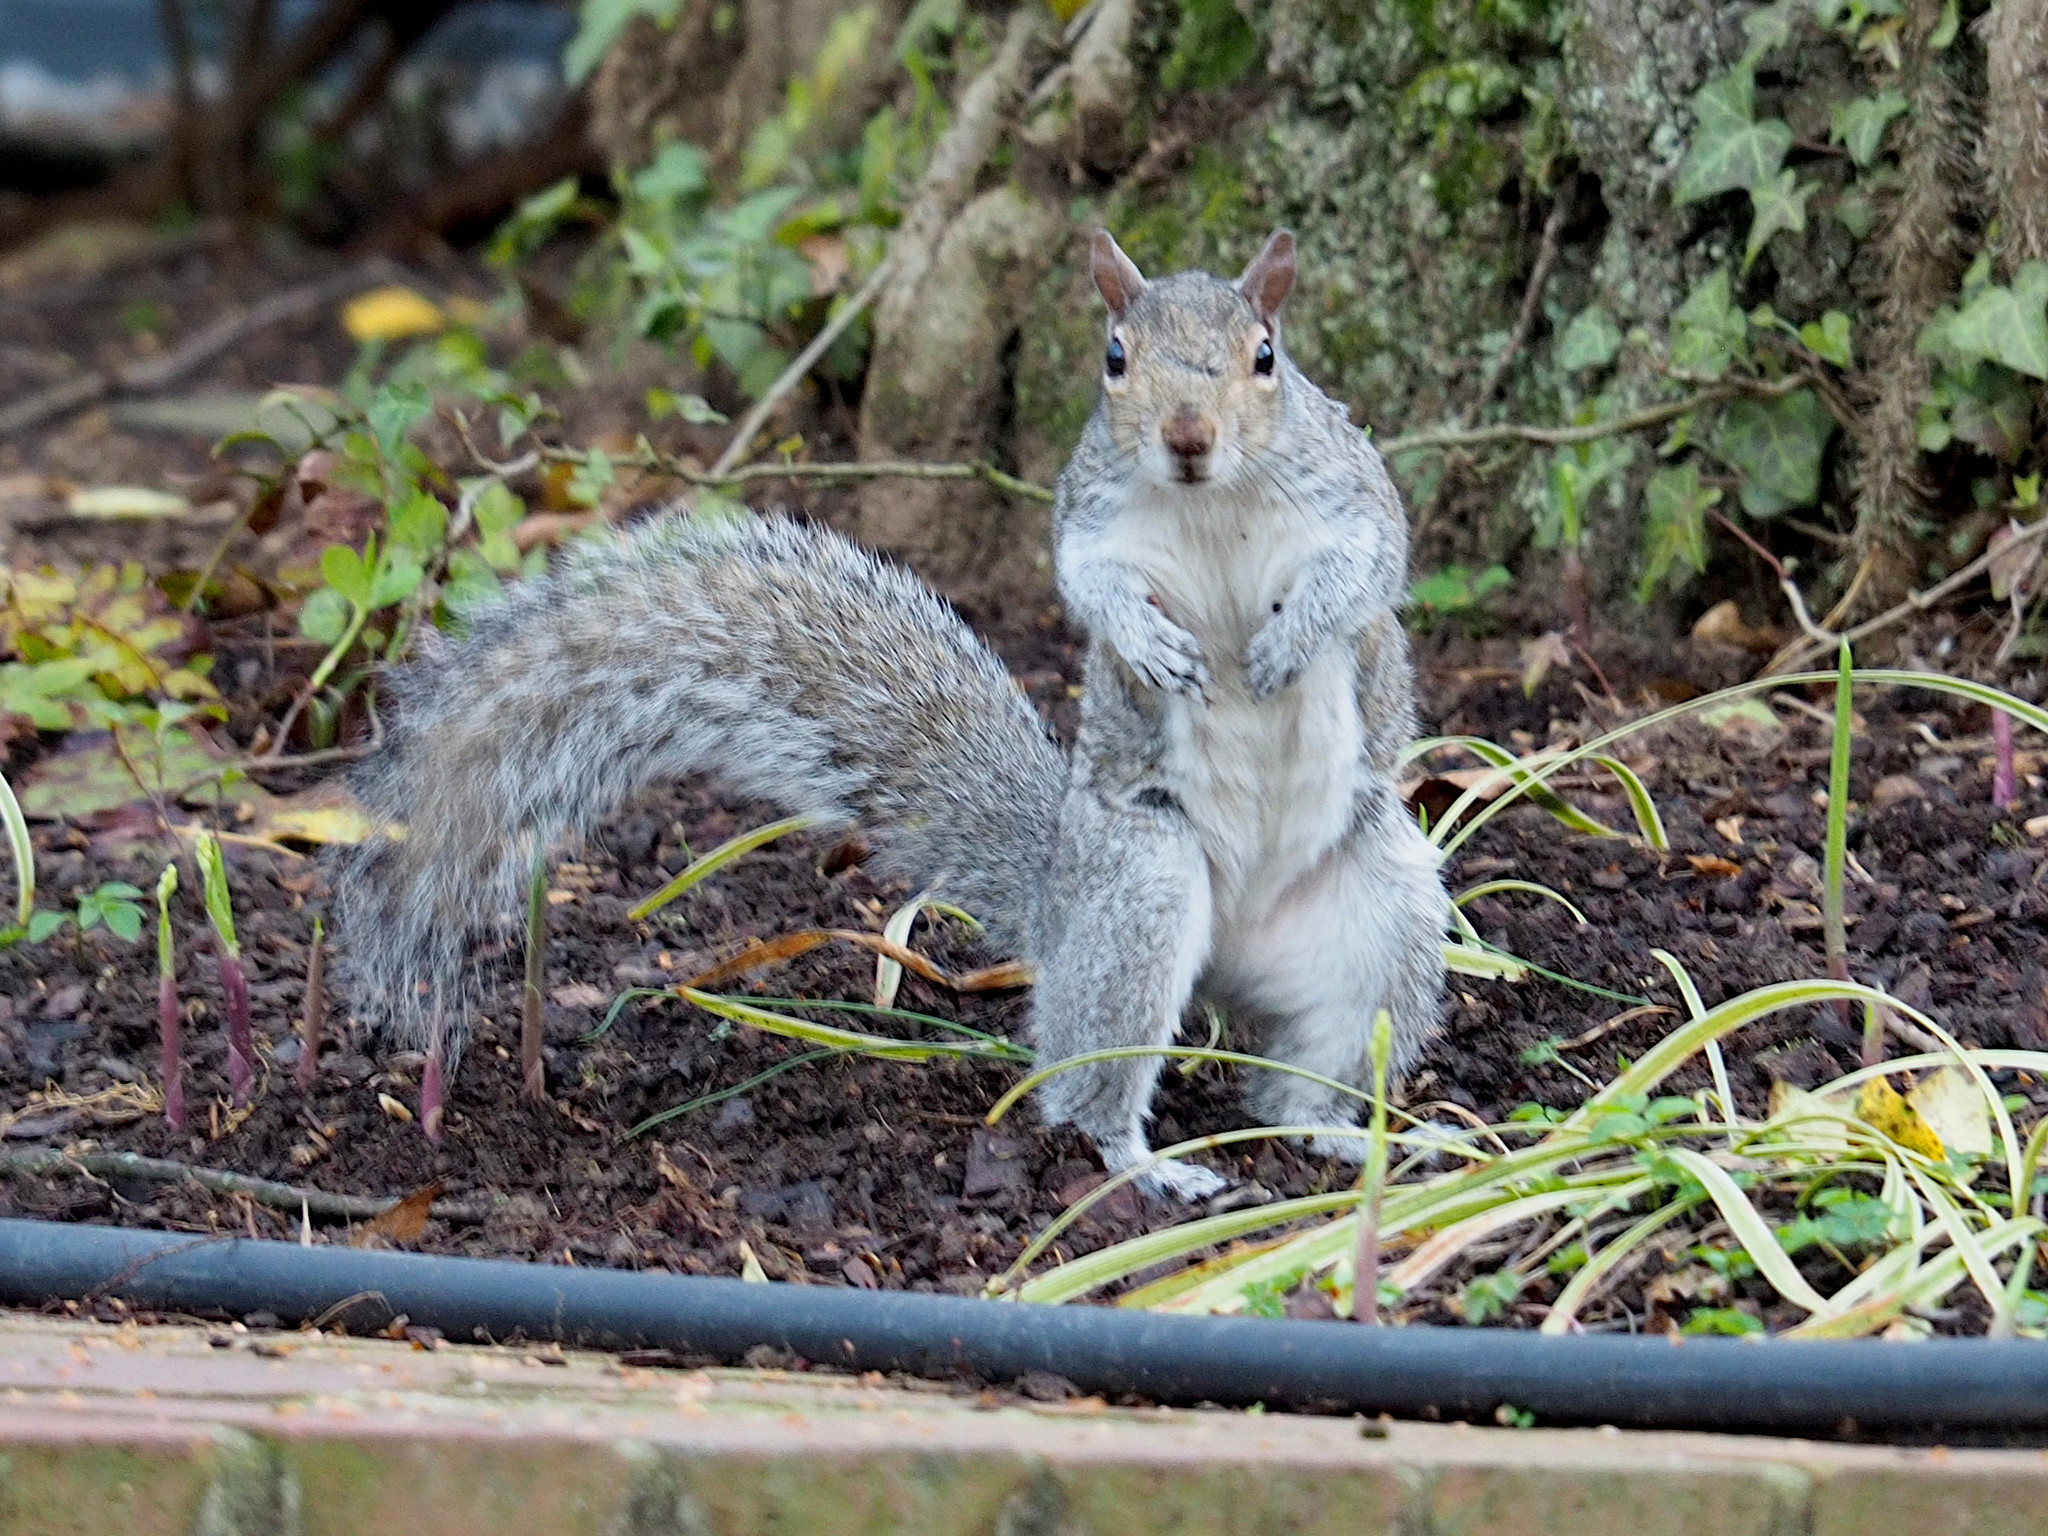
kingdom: Animalia
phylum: Chordata
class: Mammalia
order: Rodentia
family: Sciuridae
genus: Sciurus
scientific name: Sciurus carolinensis
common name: Eastern gray squirrel
